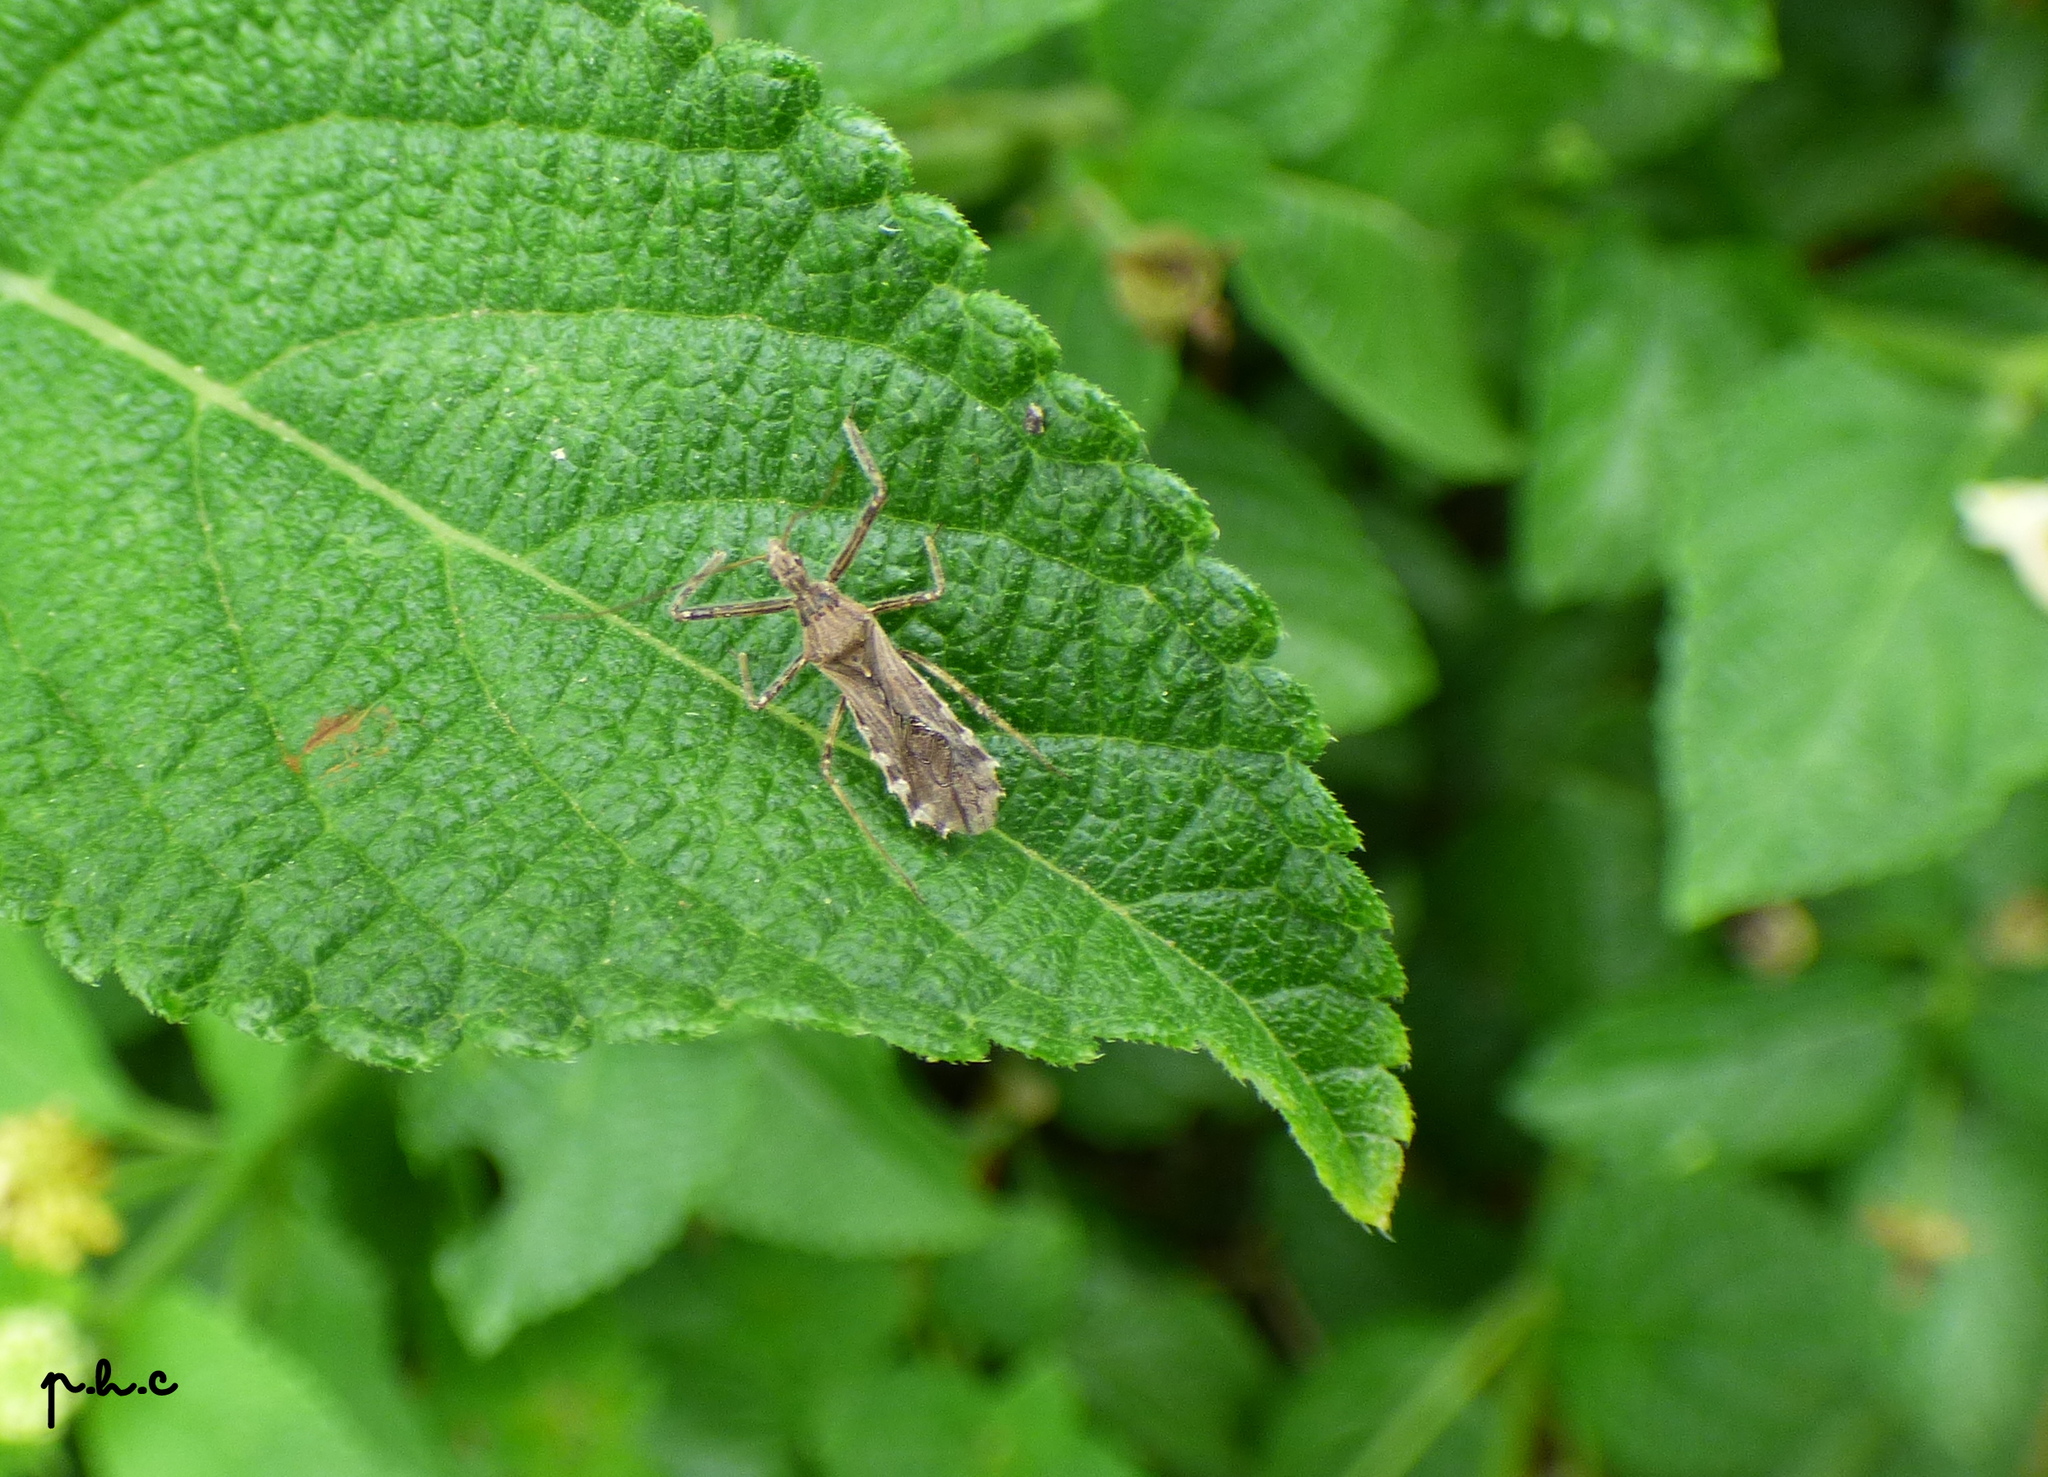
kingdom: Animalia
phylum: Arthropoda
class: Insecta
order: Hemiptera
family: Reduviidae
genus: Atrachelus
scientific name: Atrachelus cinereus
